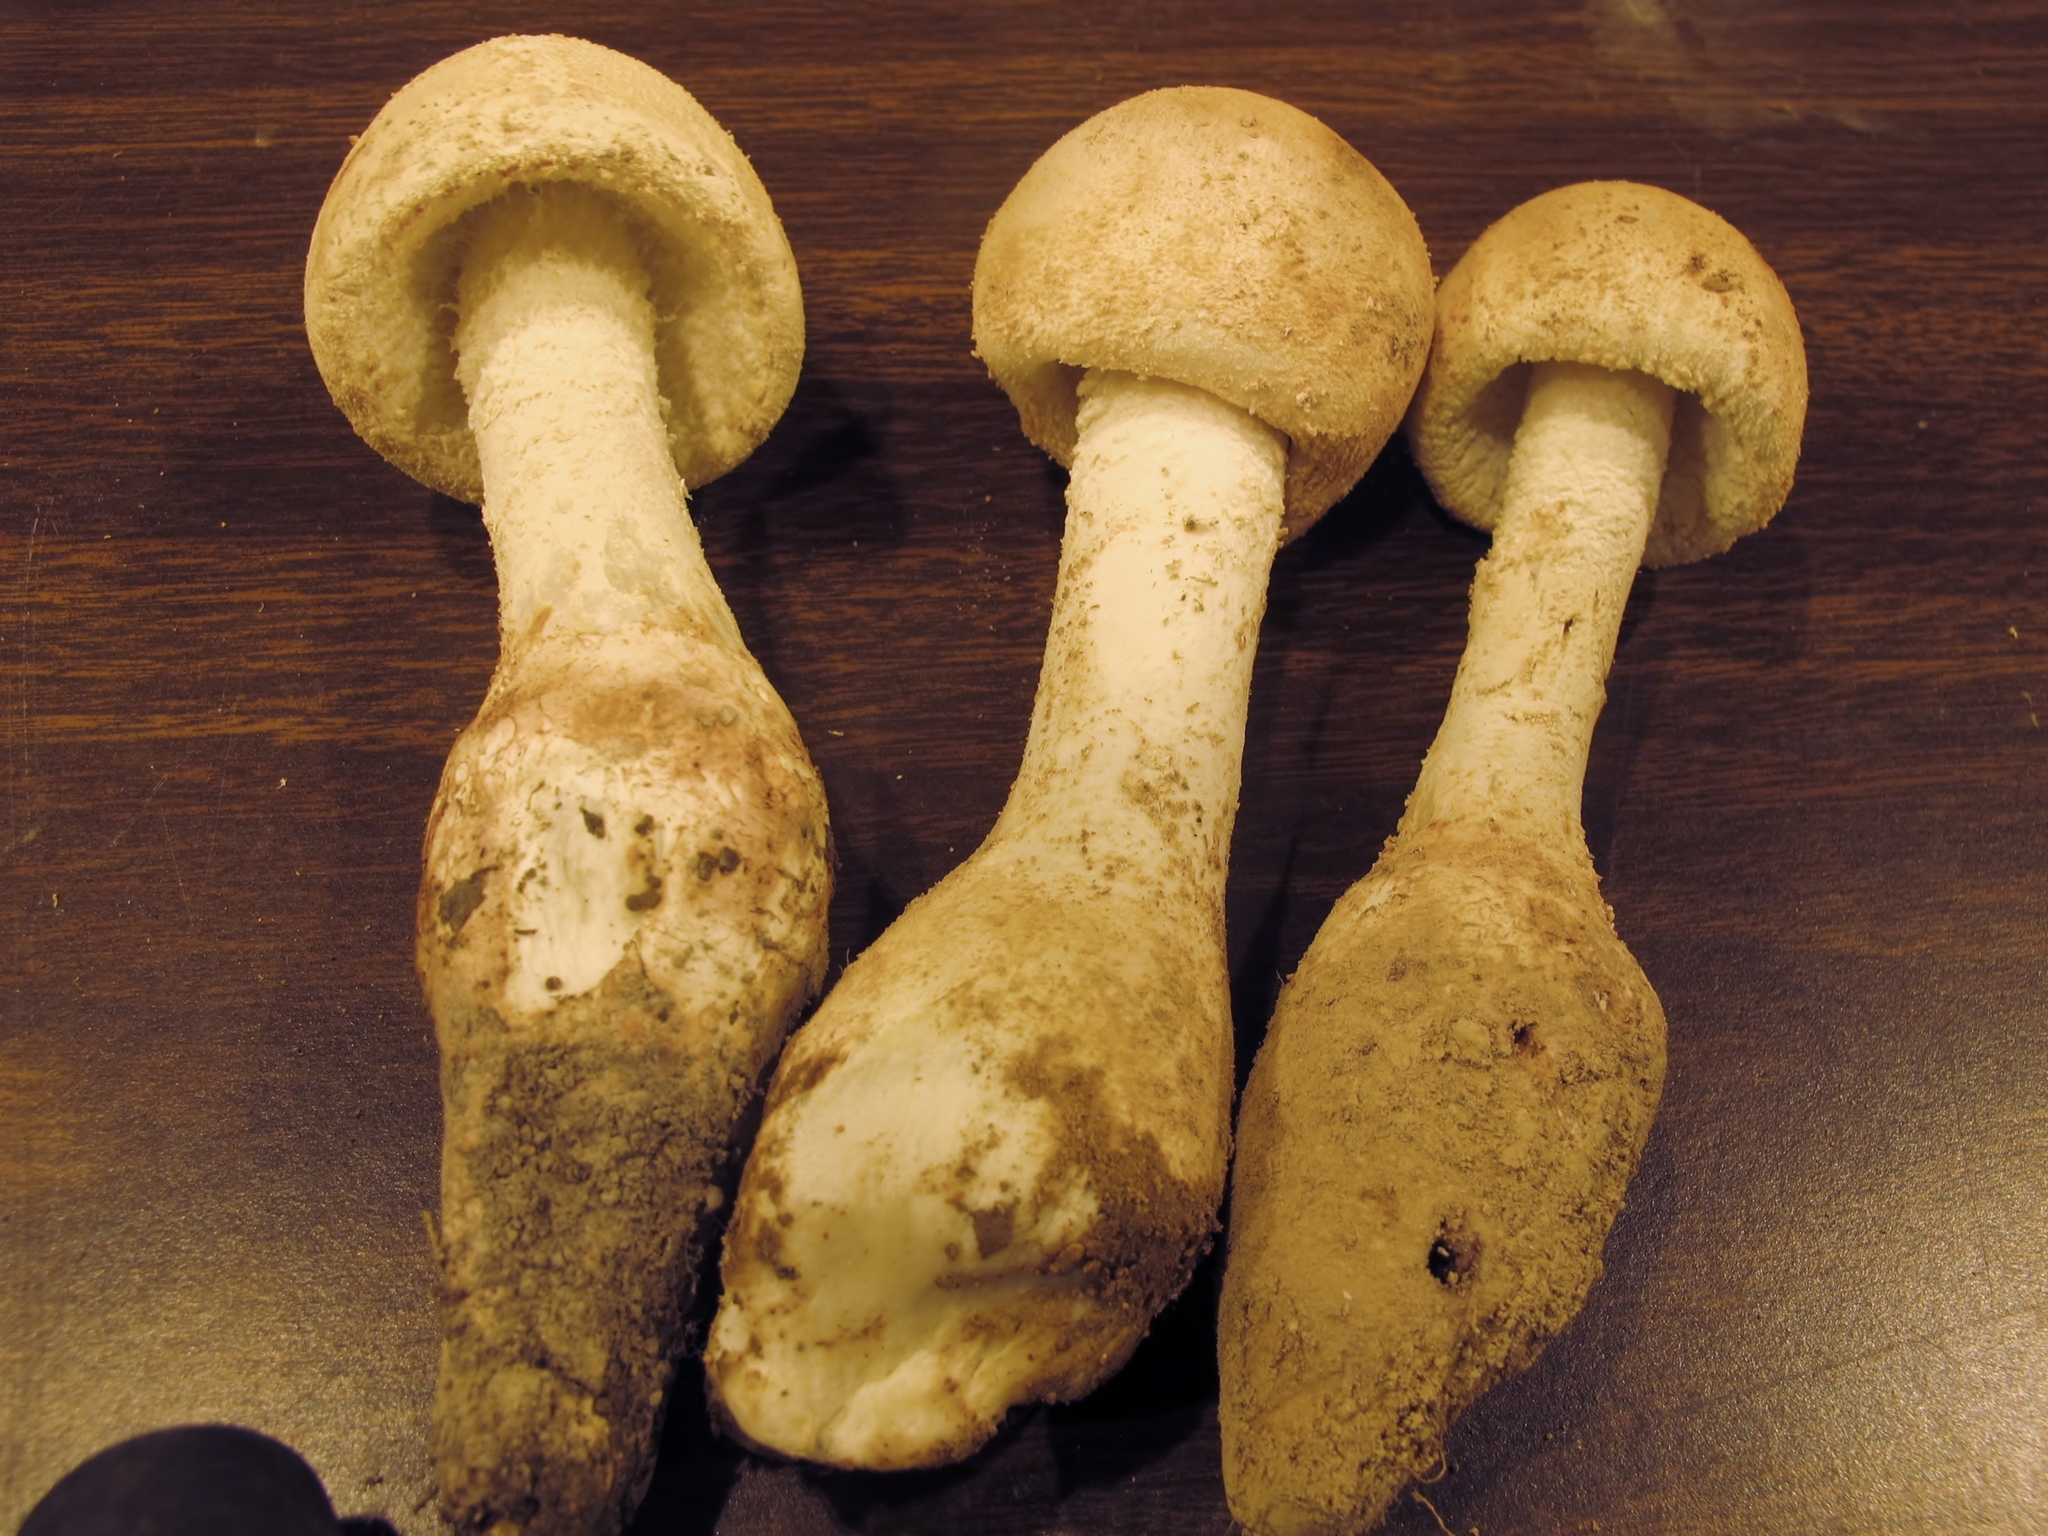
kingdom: Fungi
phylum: Basidiomycota
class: Agaricomycetes
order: Agaricales
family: Amanitaceae
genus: Amanita
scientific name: Amanita daucipes
